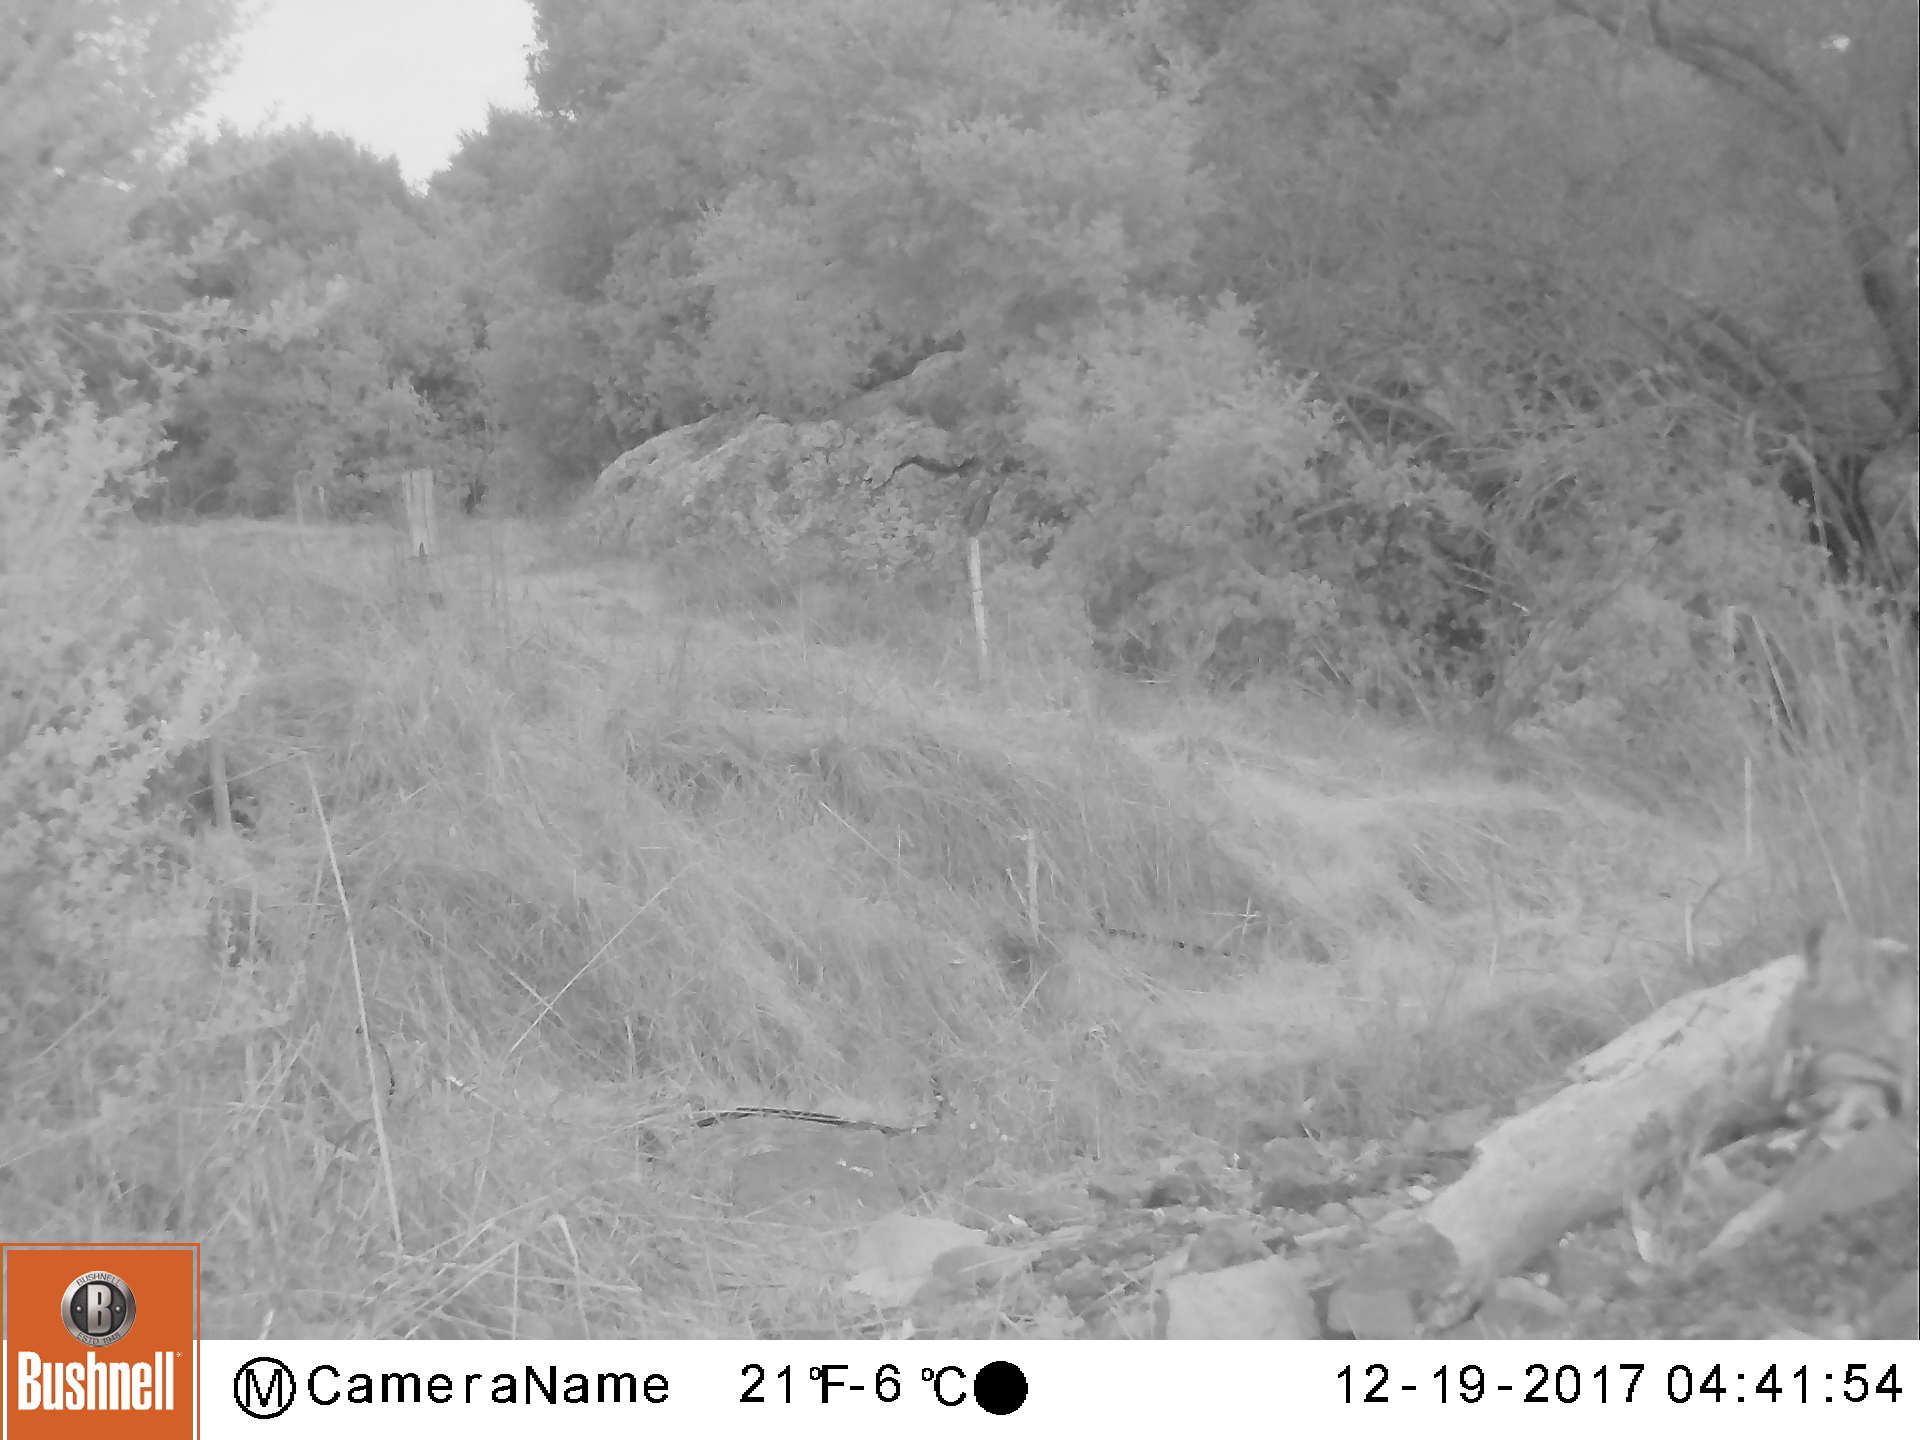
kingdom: Animalia
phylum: Chordata
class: Mammalia
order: Carnivora
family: Felidae
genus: Lynx
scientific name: Lynx rufus
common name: Bobcat
